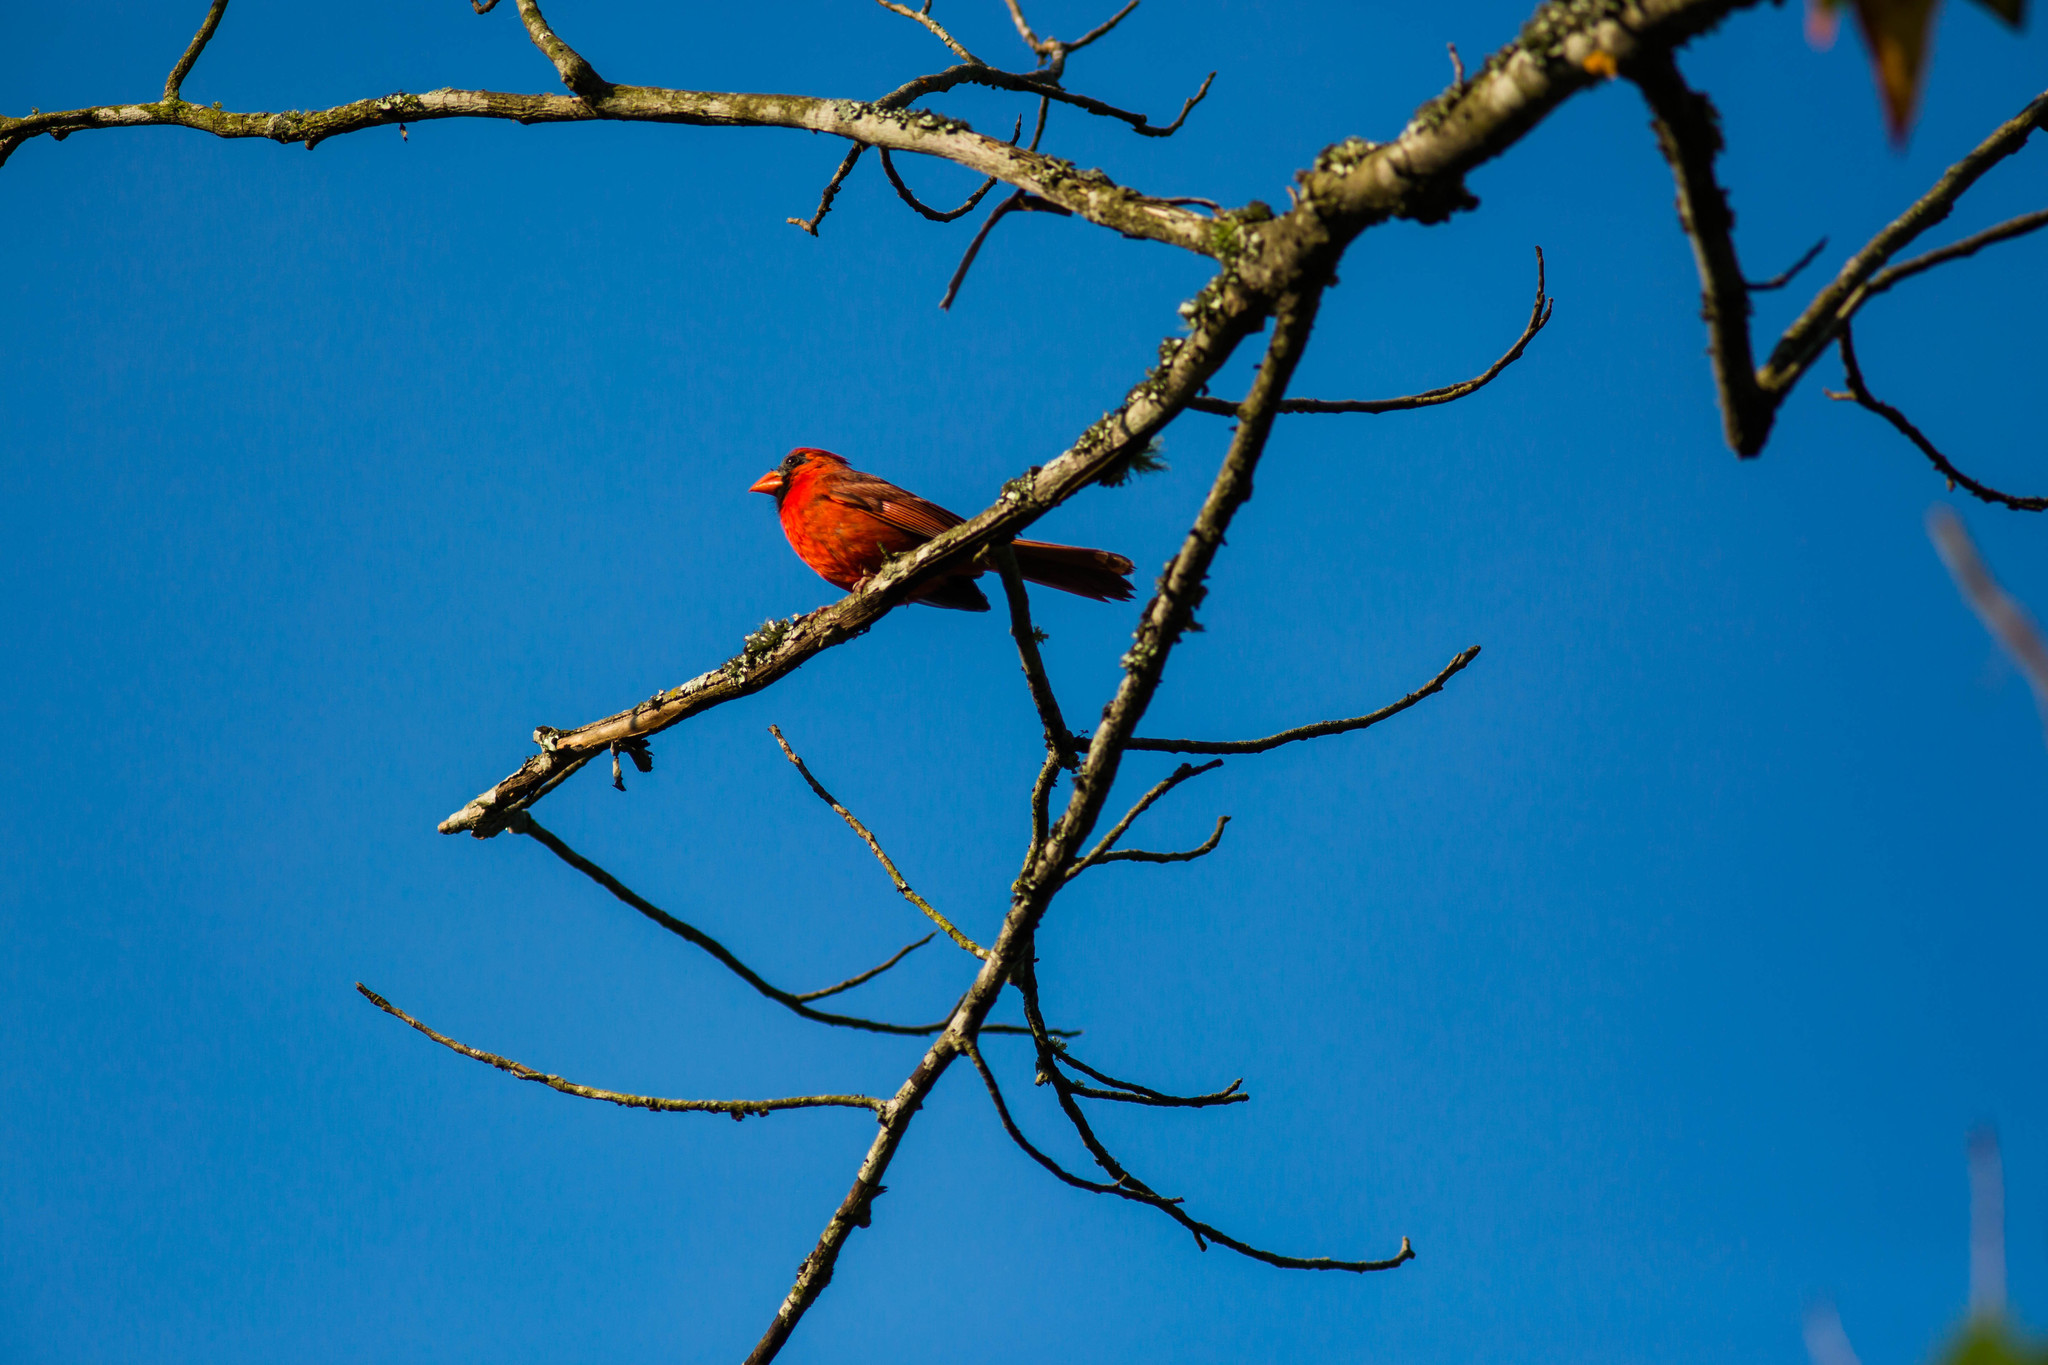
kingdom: Animalia
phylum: Chordata
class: Aves
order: Passeriformes
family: Cardinalidae
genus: Cardinalis
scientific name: Cardinalis cardinalis
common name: Northern cardinal
